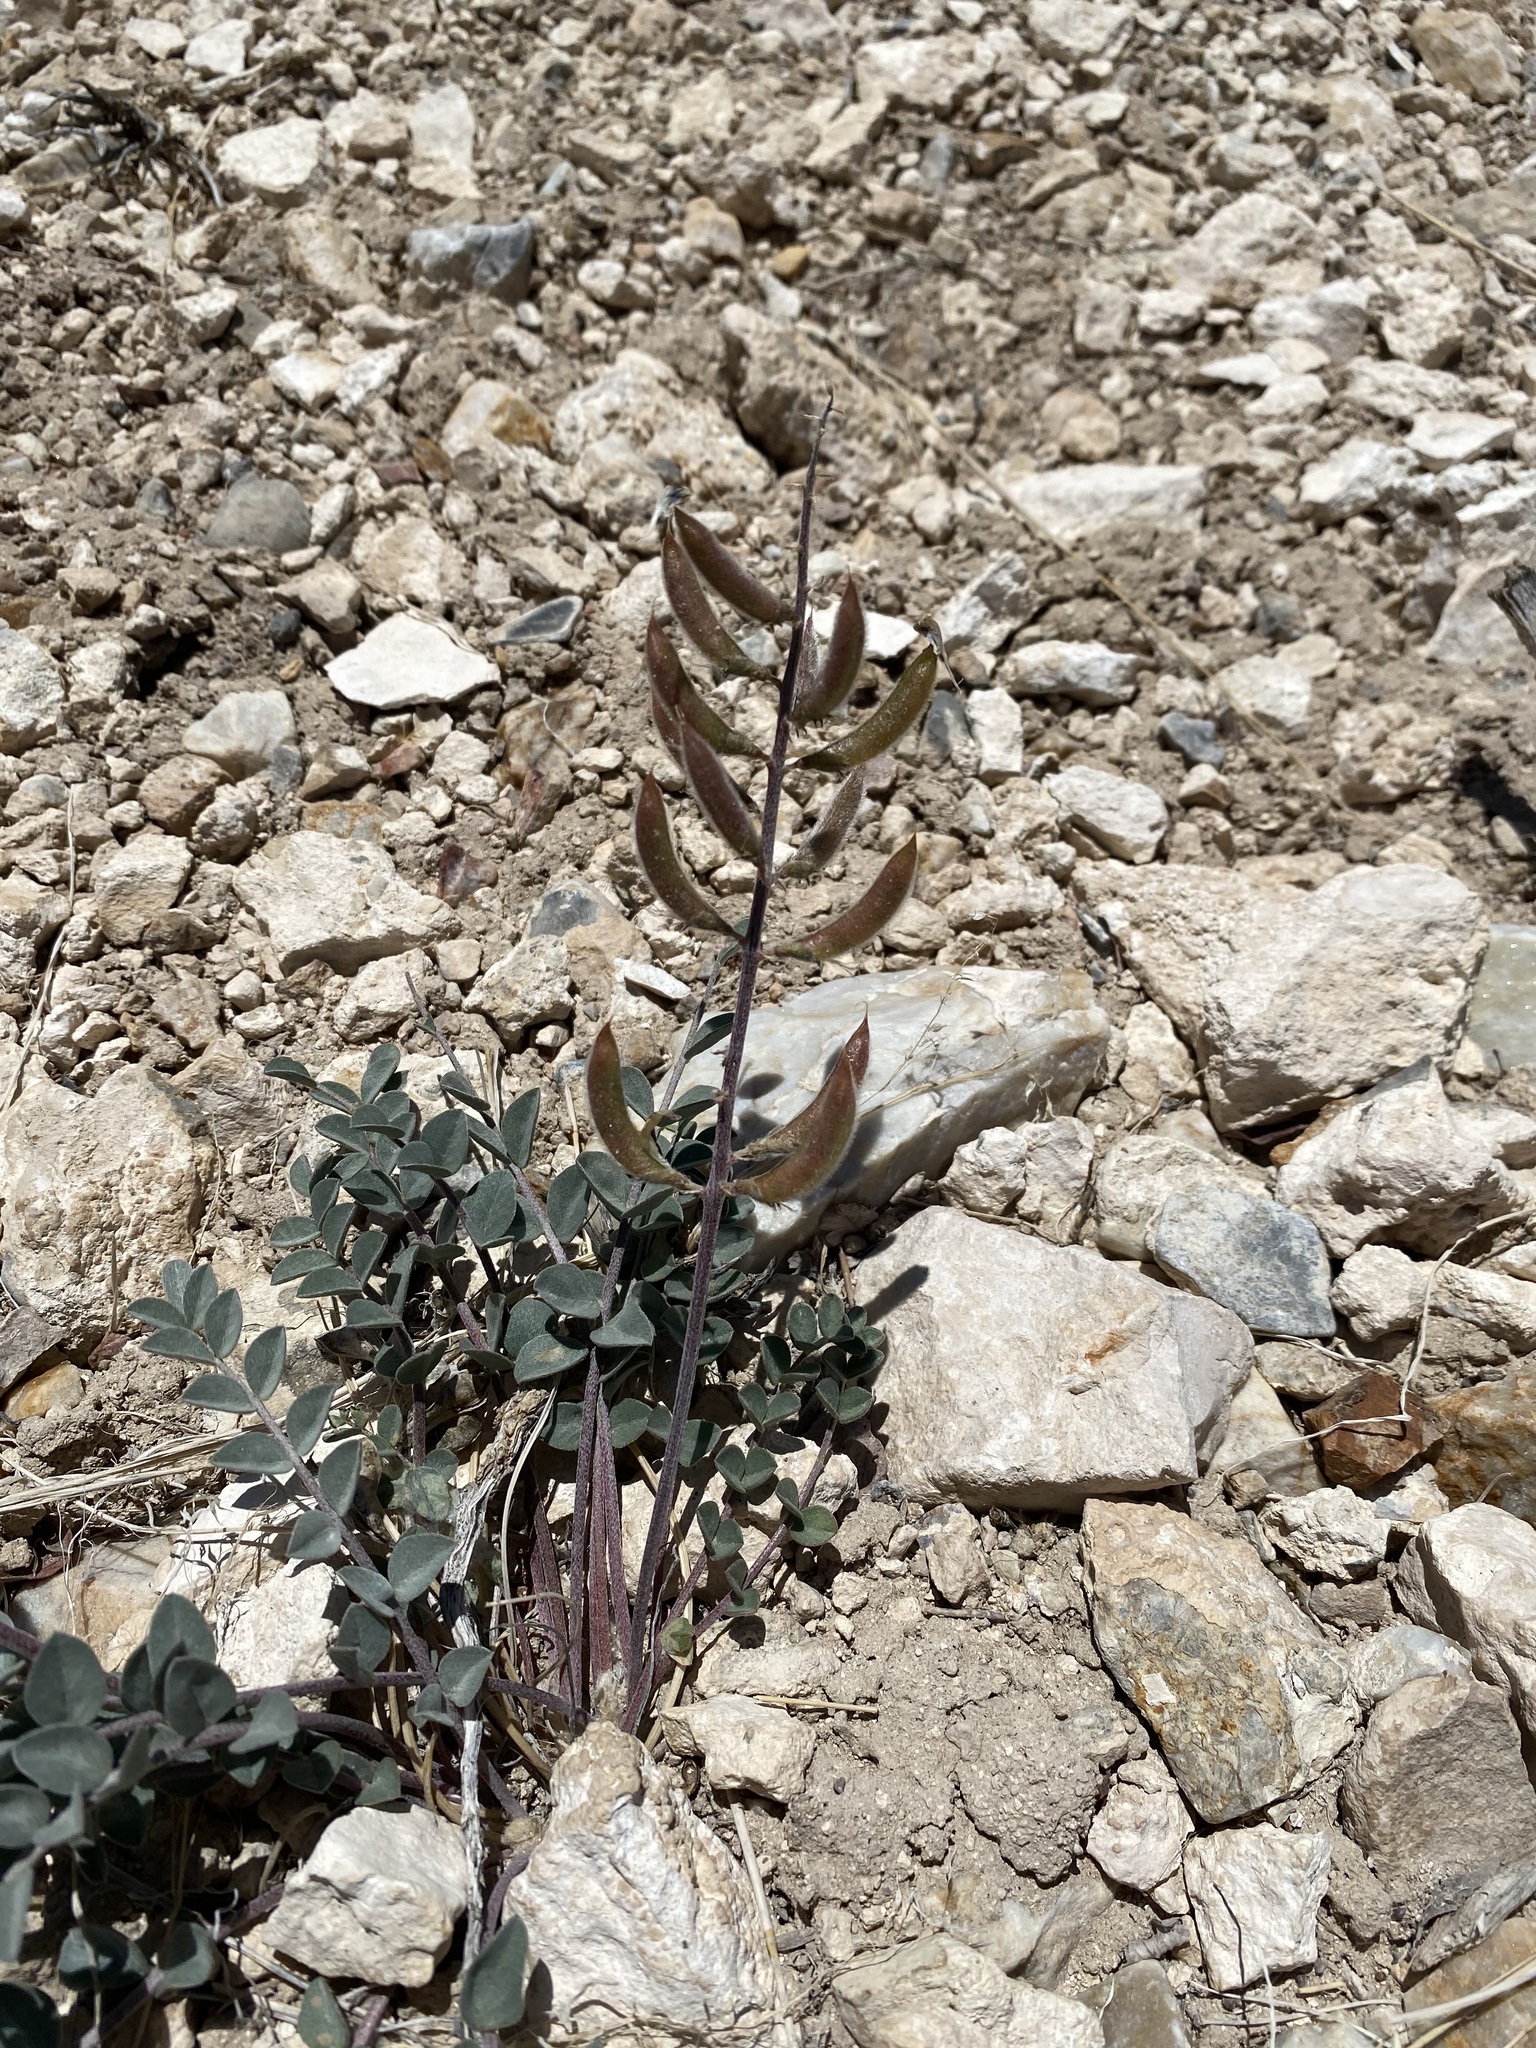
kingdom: Plantae
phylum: Tracheophyta
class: Magnoliopsida
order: Fabales
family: Fabaceae
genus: Astragalus
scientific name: Astragalus minthorniae
